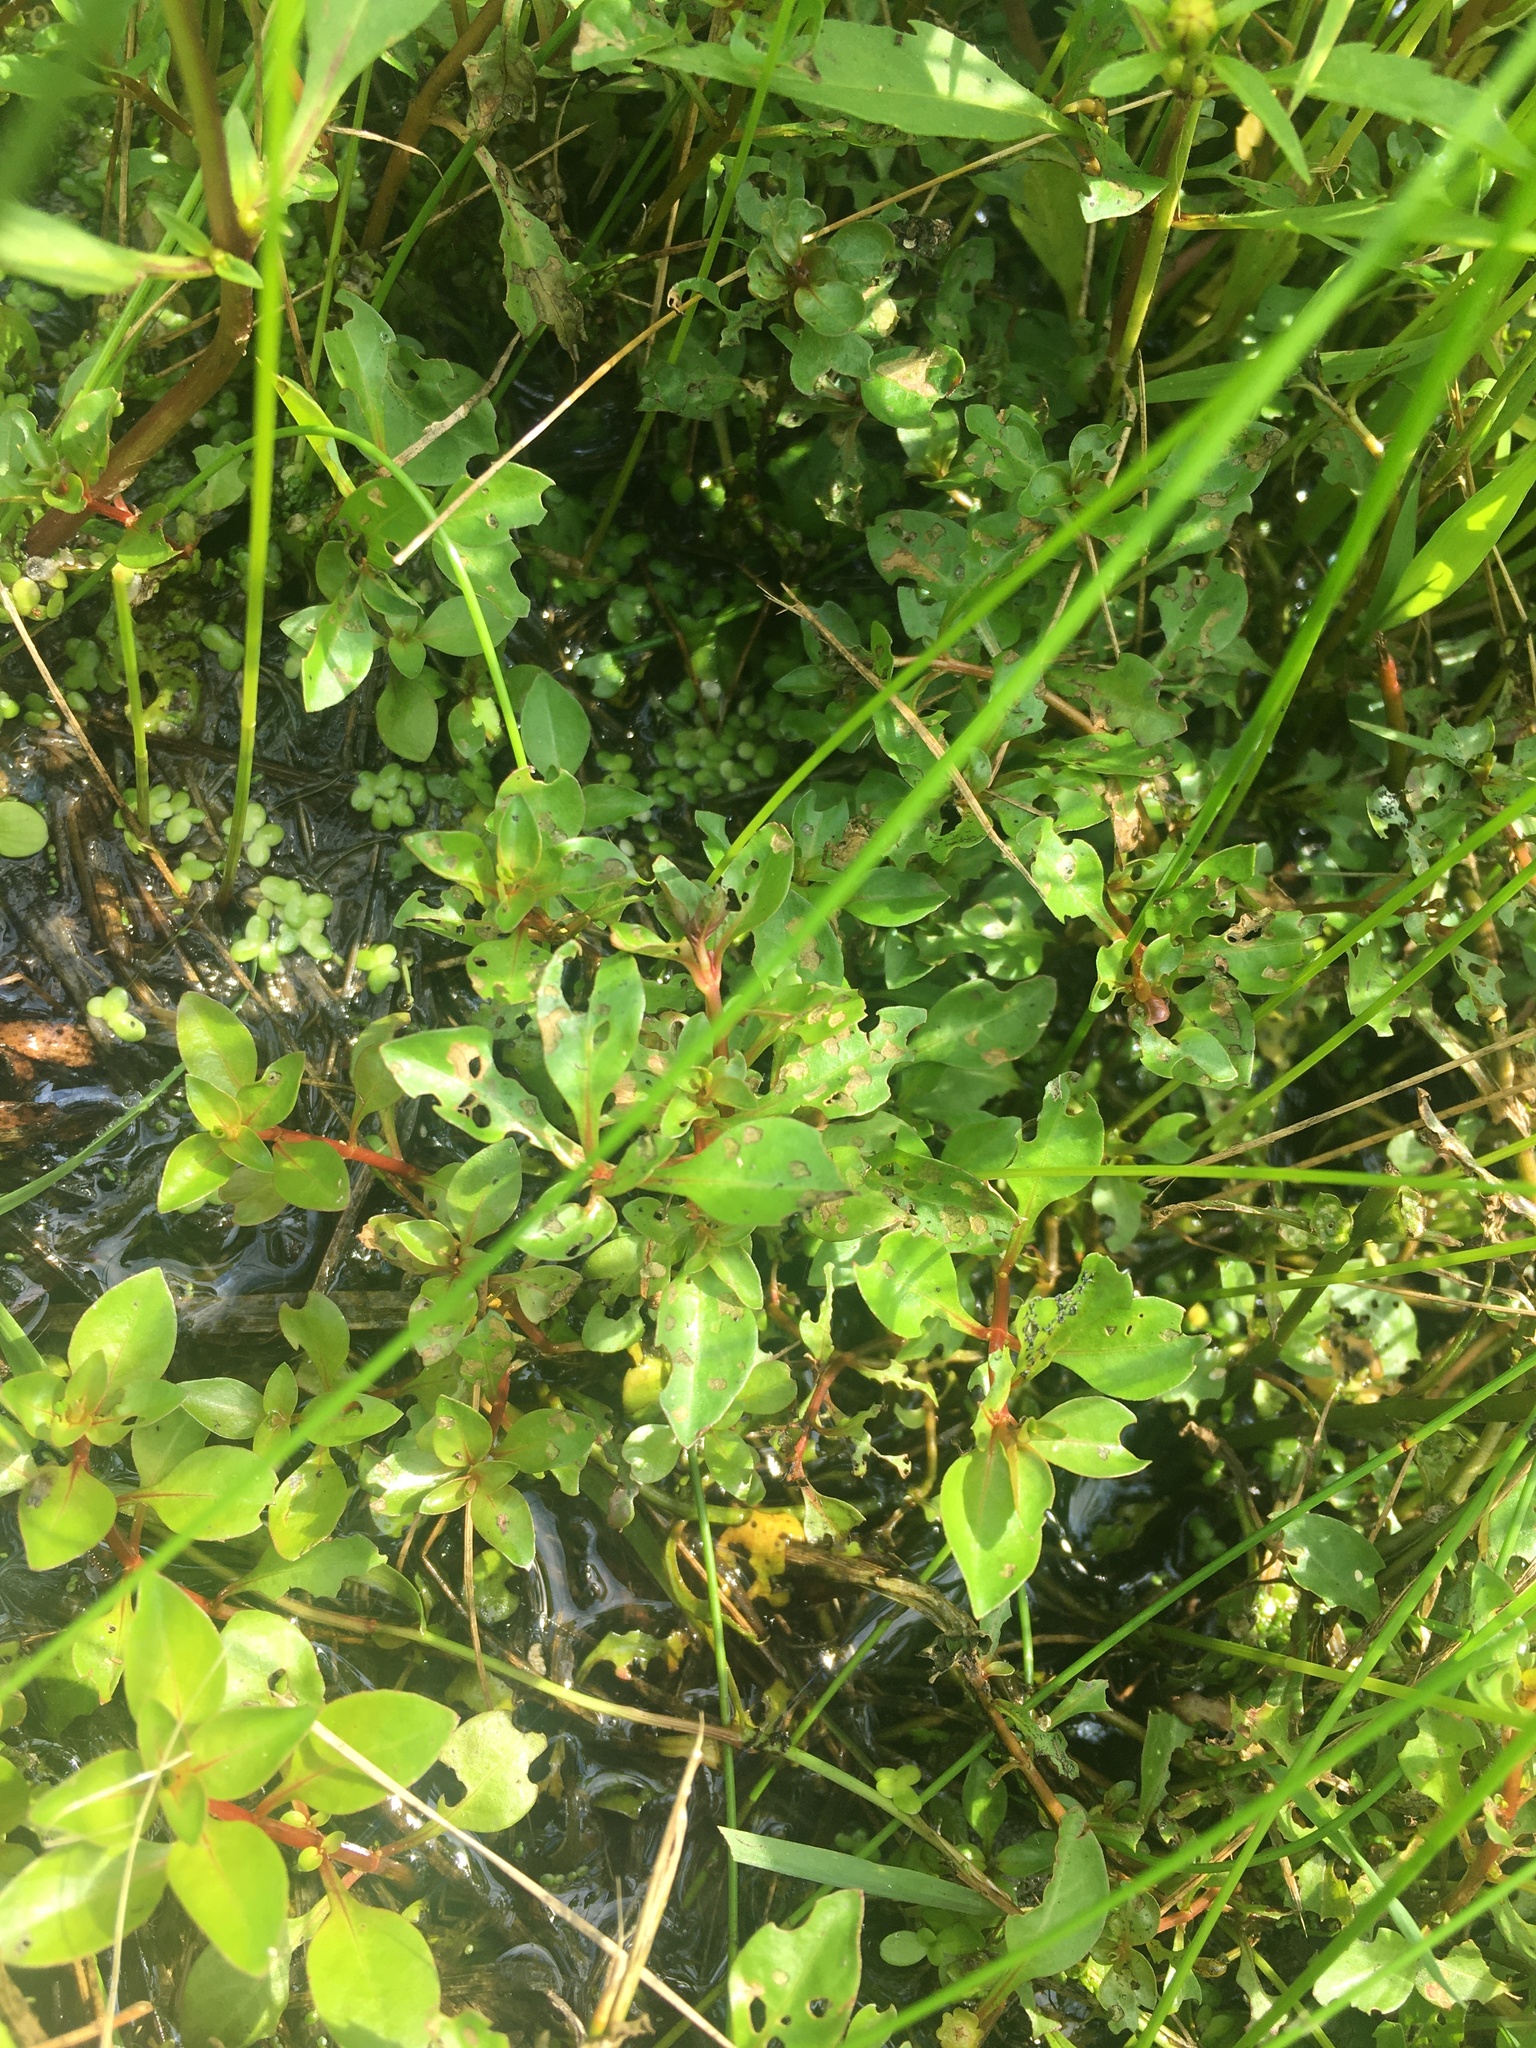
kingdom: Plantae
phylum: Tracheophyta
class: Magnoliopsida
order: Myrtales
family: Onagraceae
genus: Ludwigia
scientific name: Ludwigia palustris
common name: Hampshire-purslane
